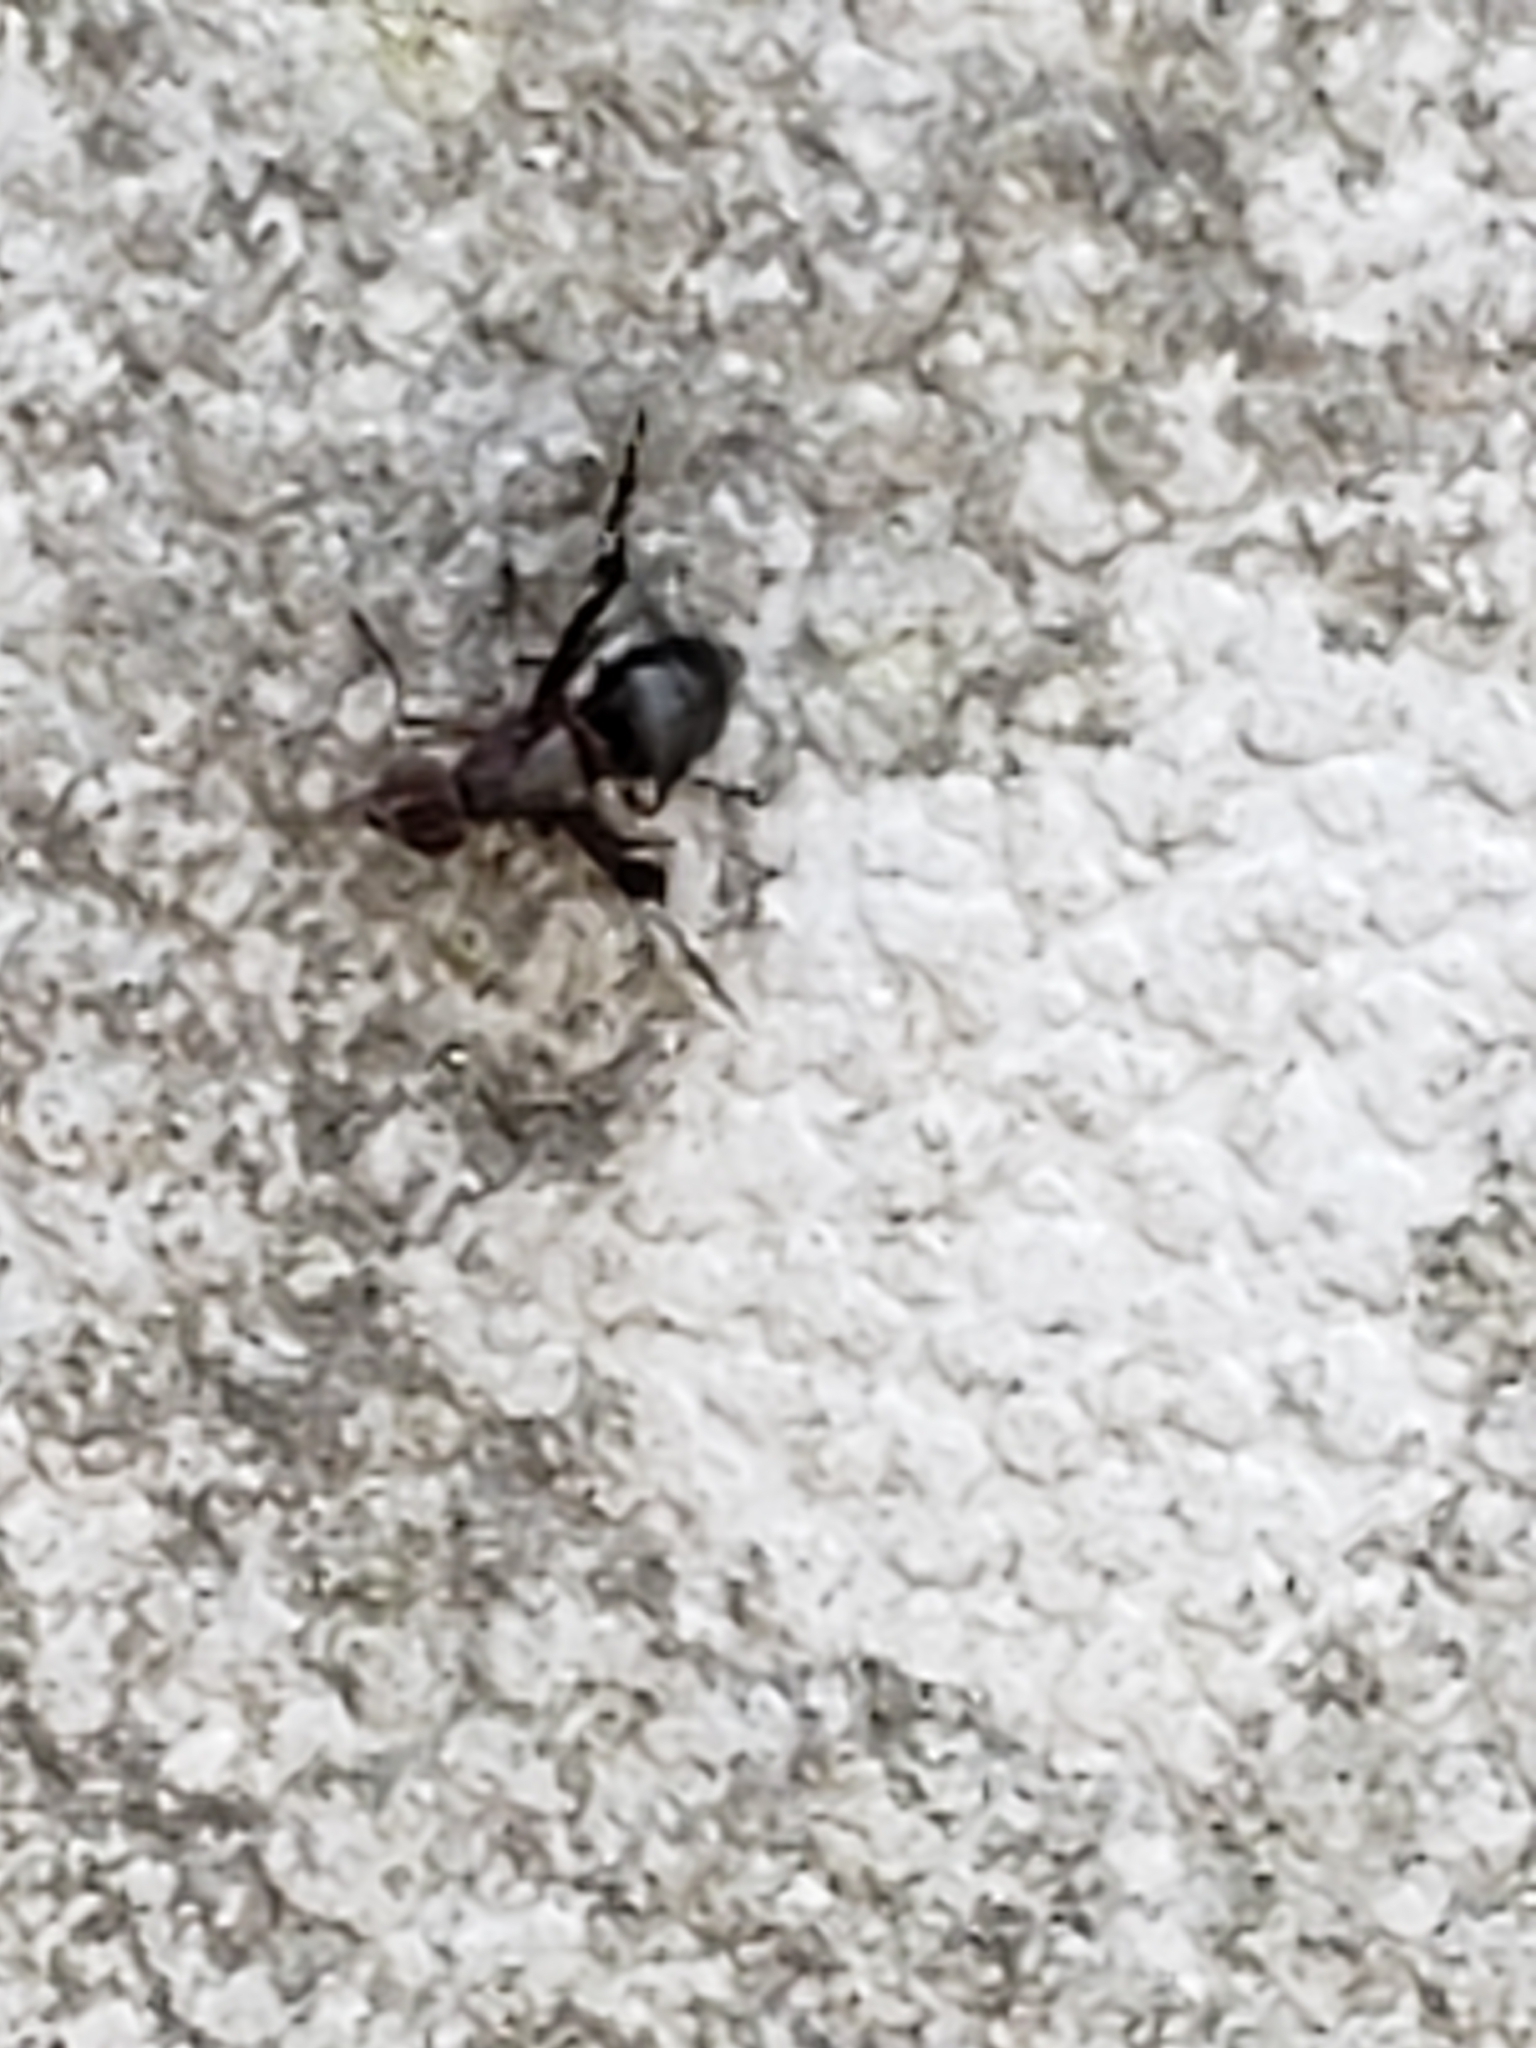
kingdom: Animalia
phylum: Arthropoda
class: Insecta
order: Diptera
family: Ulidiidae
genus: Delphinia
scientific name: Delphinia picta
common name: Common picture-winged fly
